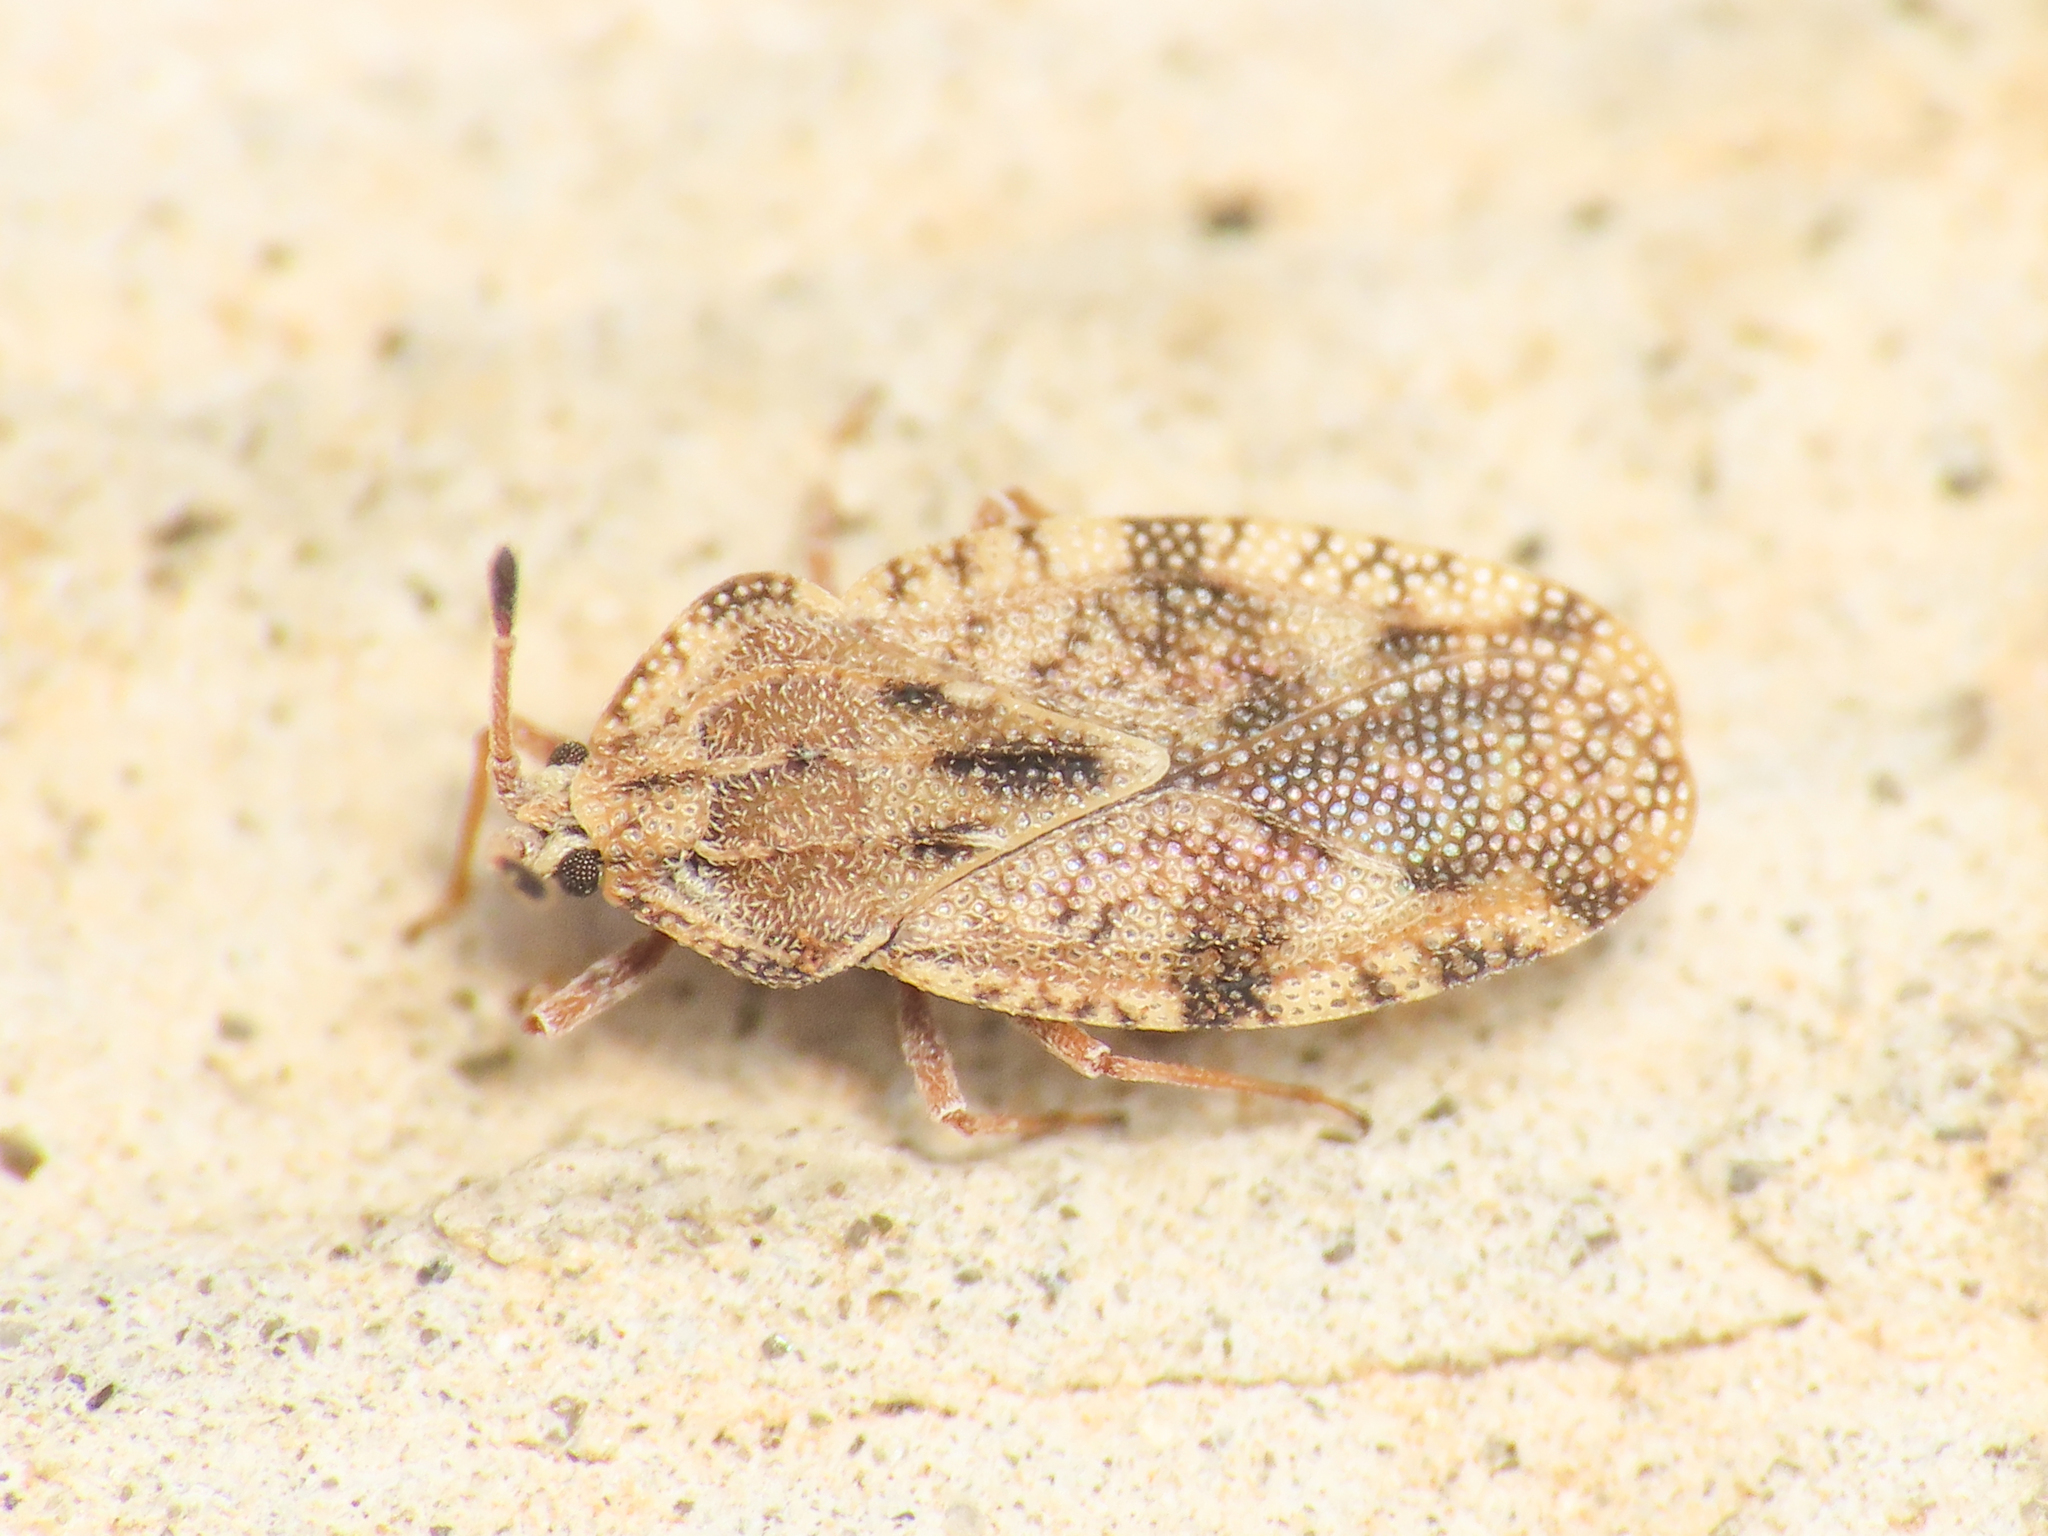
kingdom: Animalia
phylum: Arthropoda
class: Insecta
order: Hemiptera
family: Tingidae
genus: Tingis
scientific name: Tingis cardui
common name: Spear thistle lacebug
